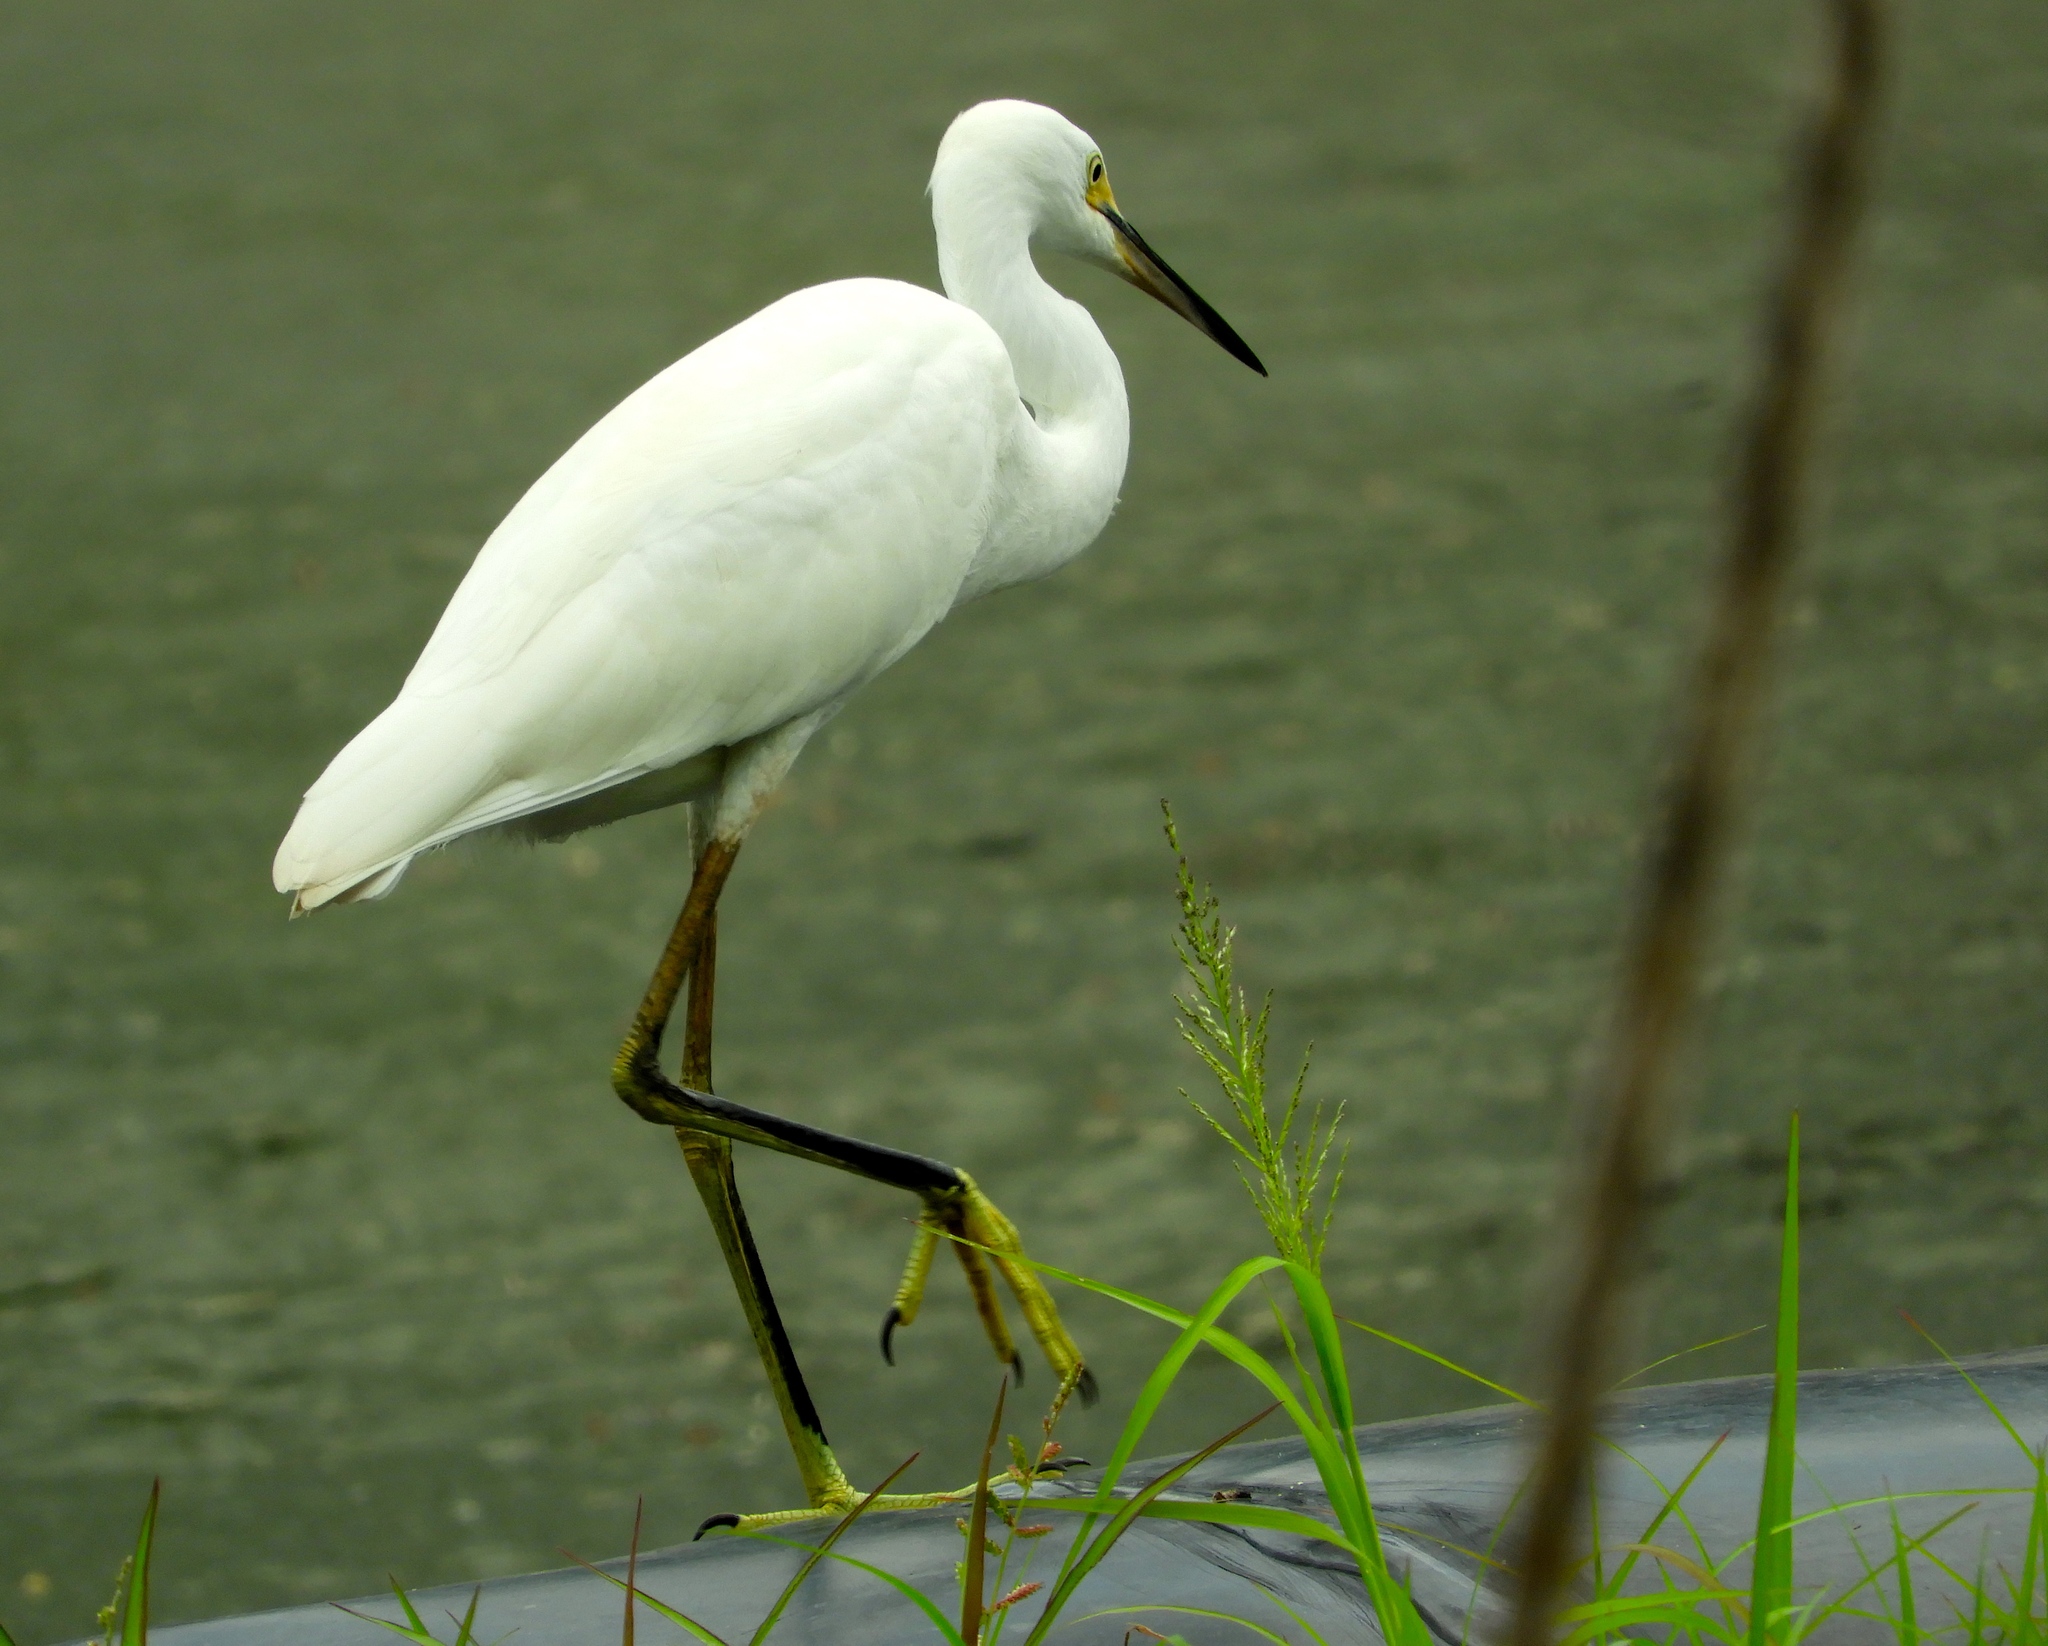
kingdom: Animalia
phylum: Chordata
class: Aves
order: Pelecaniformes
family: Ardeidae
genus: Egretta
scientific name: Egretta thula
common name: Snowy egret
